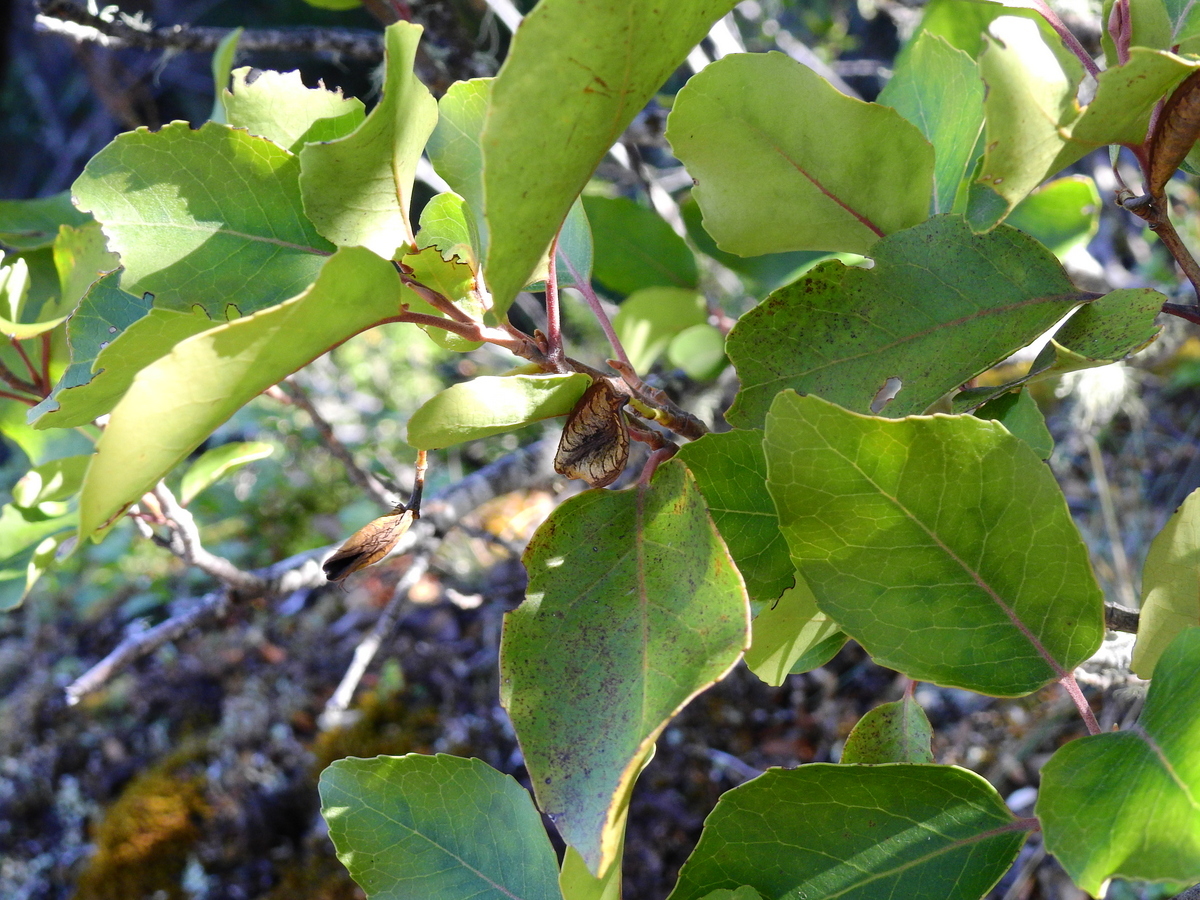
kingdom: Plantae
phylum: Tracheophyta
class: Magnoliopsida
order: Proteales
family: Proteaceae
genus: Lomatia
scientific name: Lomatia hirsuta
